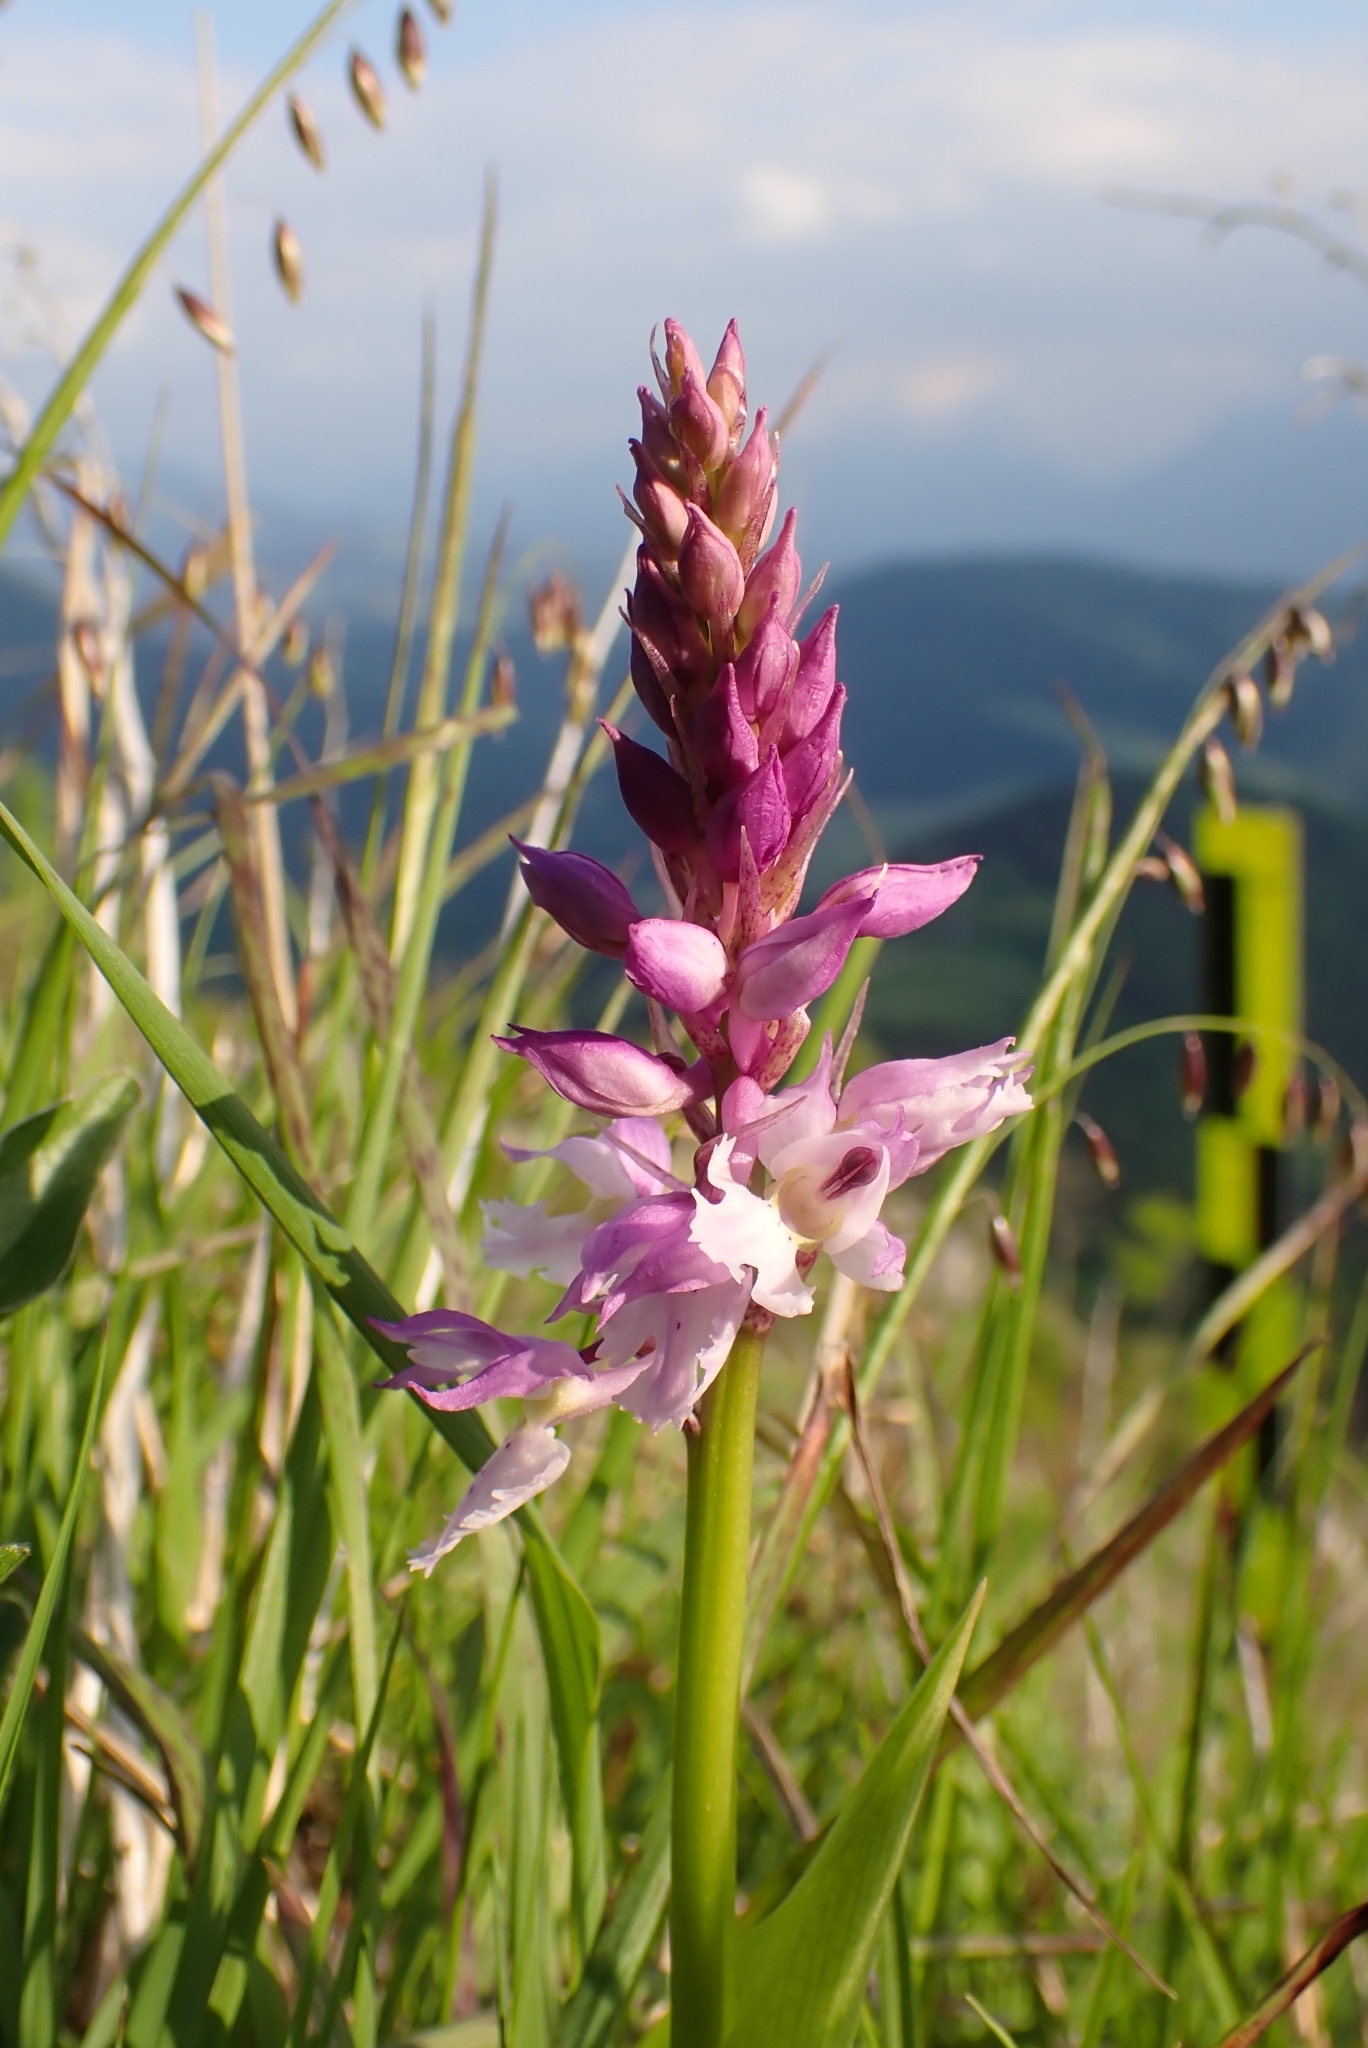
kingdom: Plantae
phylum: Tracheophyta
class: Liliopsida
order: Asparagales
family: Orchidaceae
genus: Orchis
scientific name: Orchis mascula
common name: Early-purple orchid
